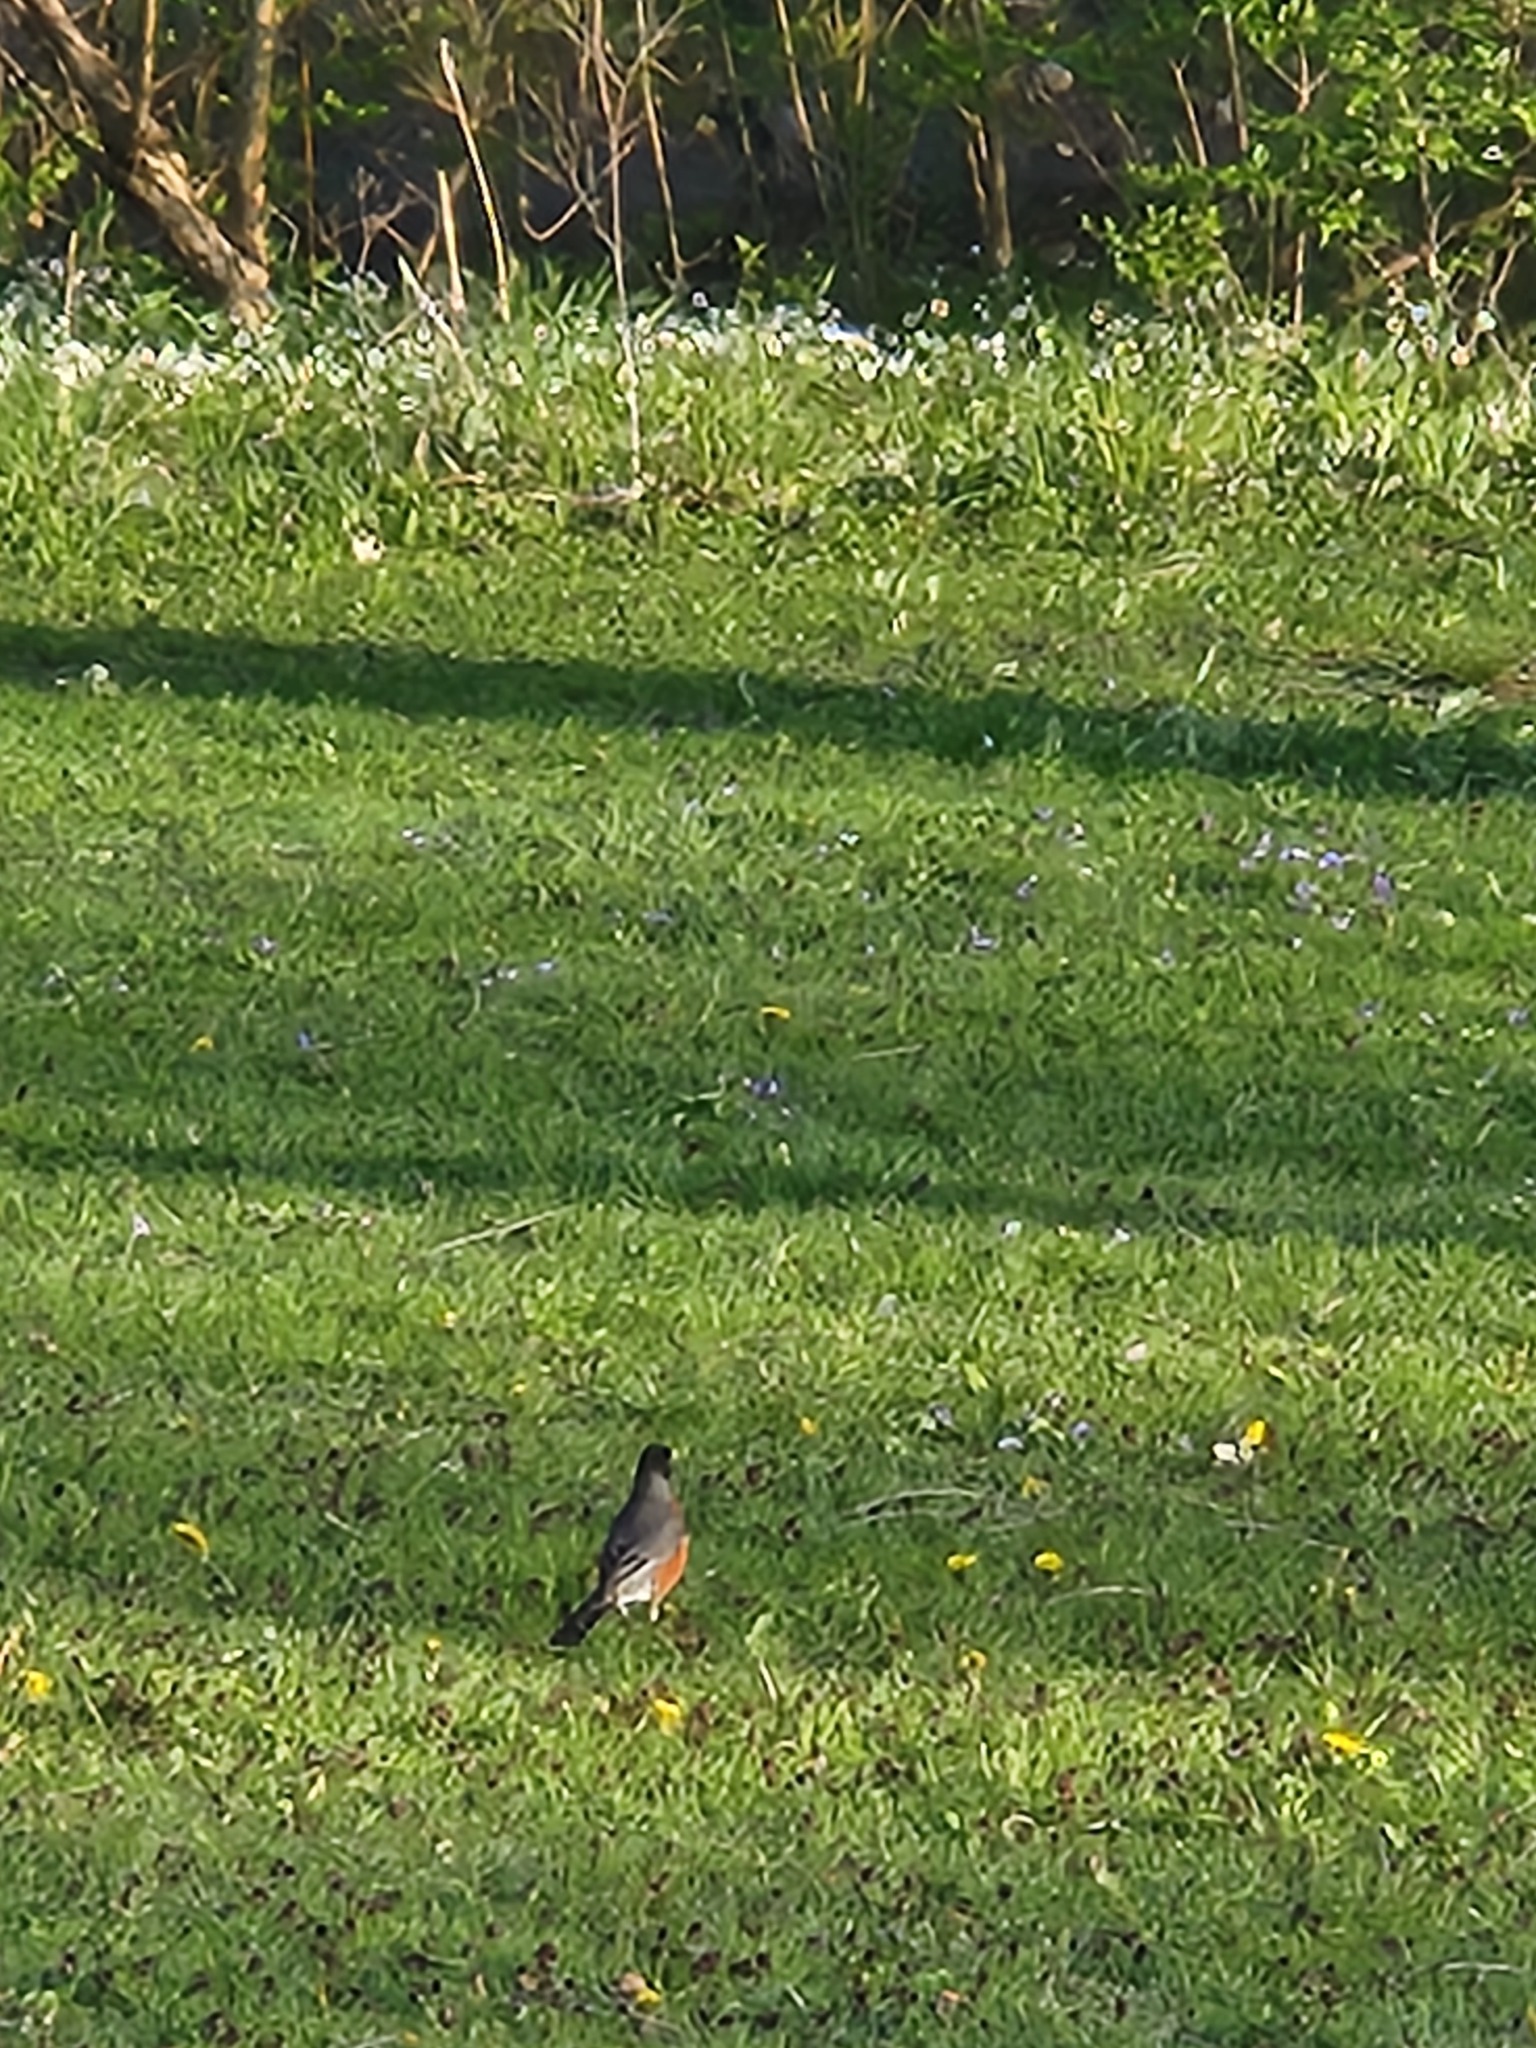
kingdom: Animalia
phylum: Chordata
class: Aves
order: Passeriformes
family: Turdidae
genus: Turdus
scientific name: Turdus migratorius
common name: American robin
